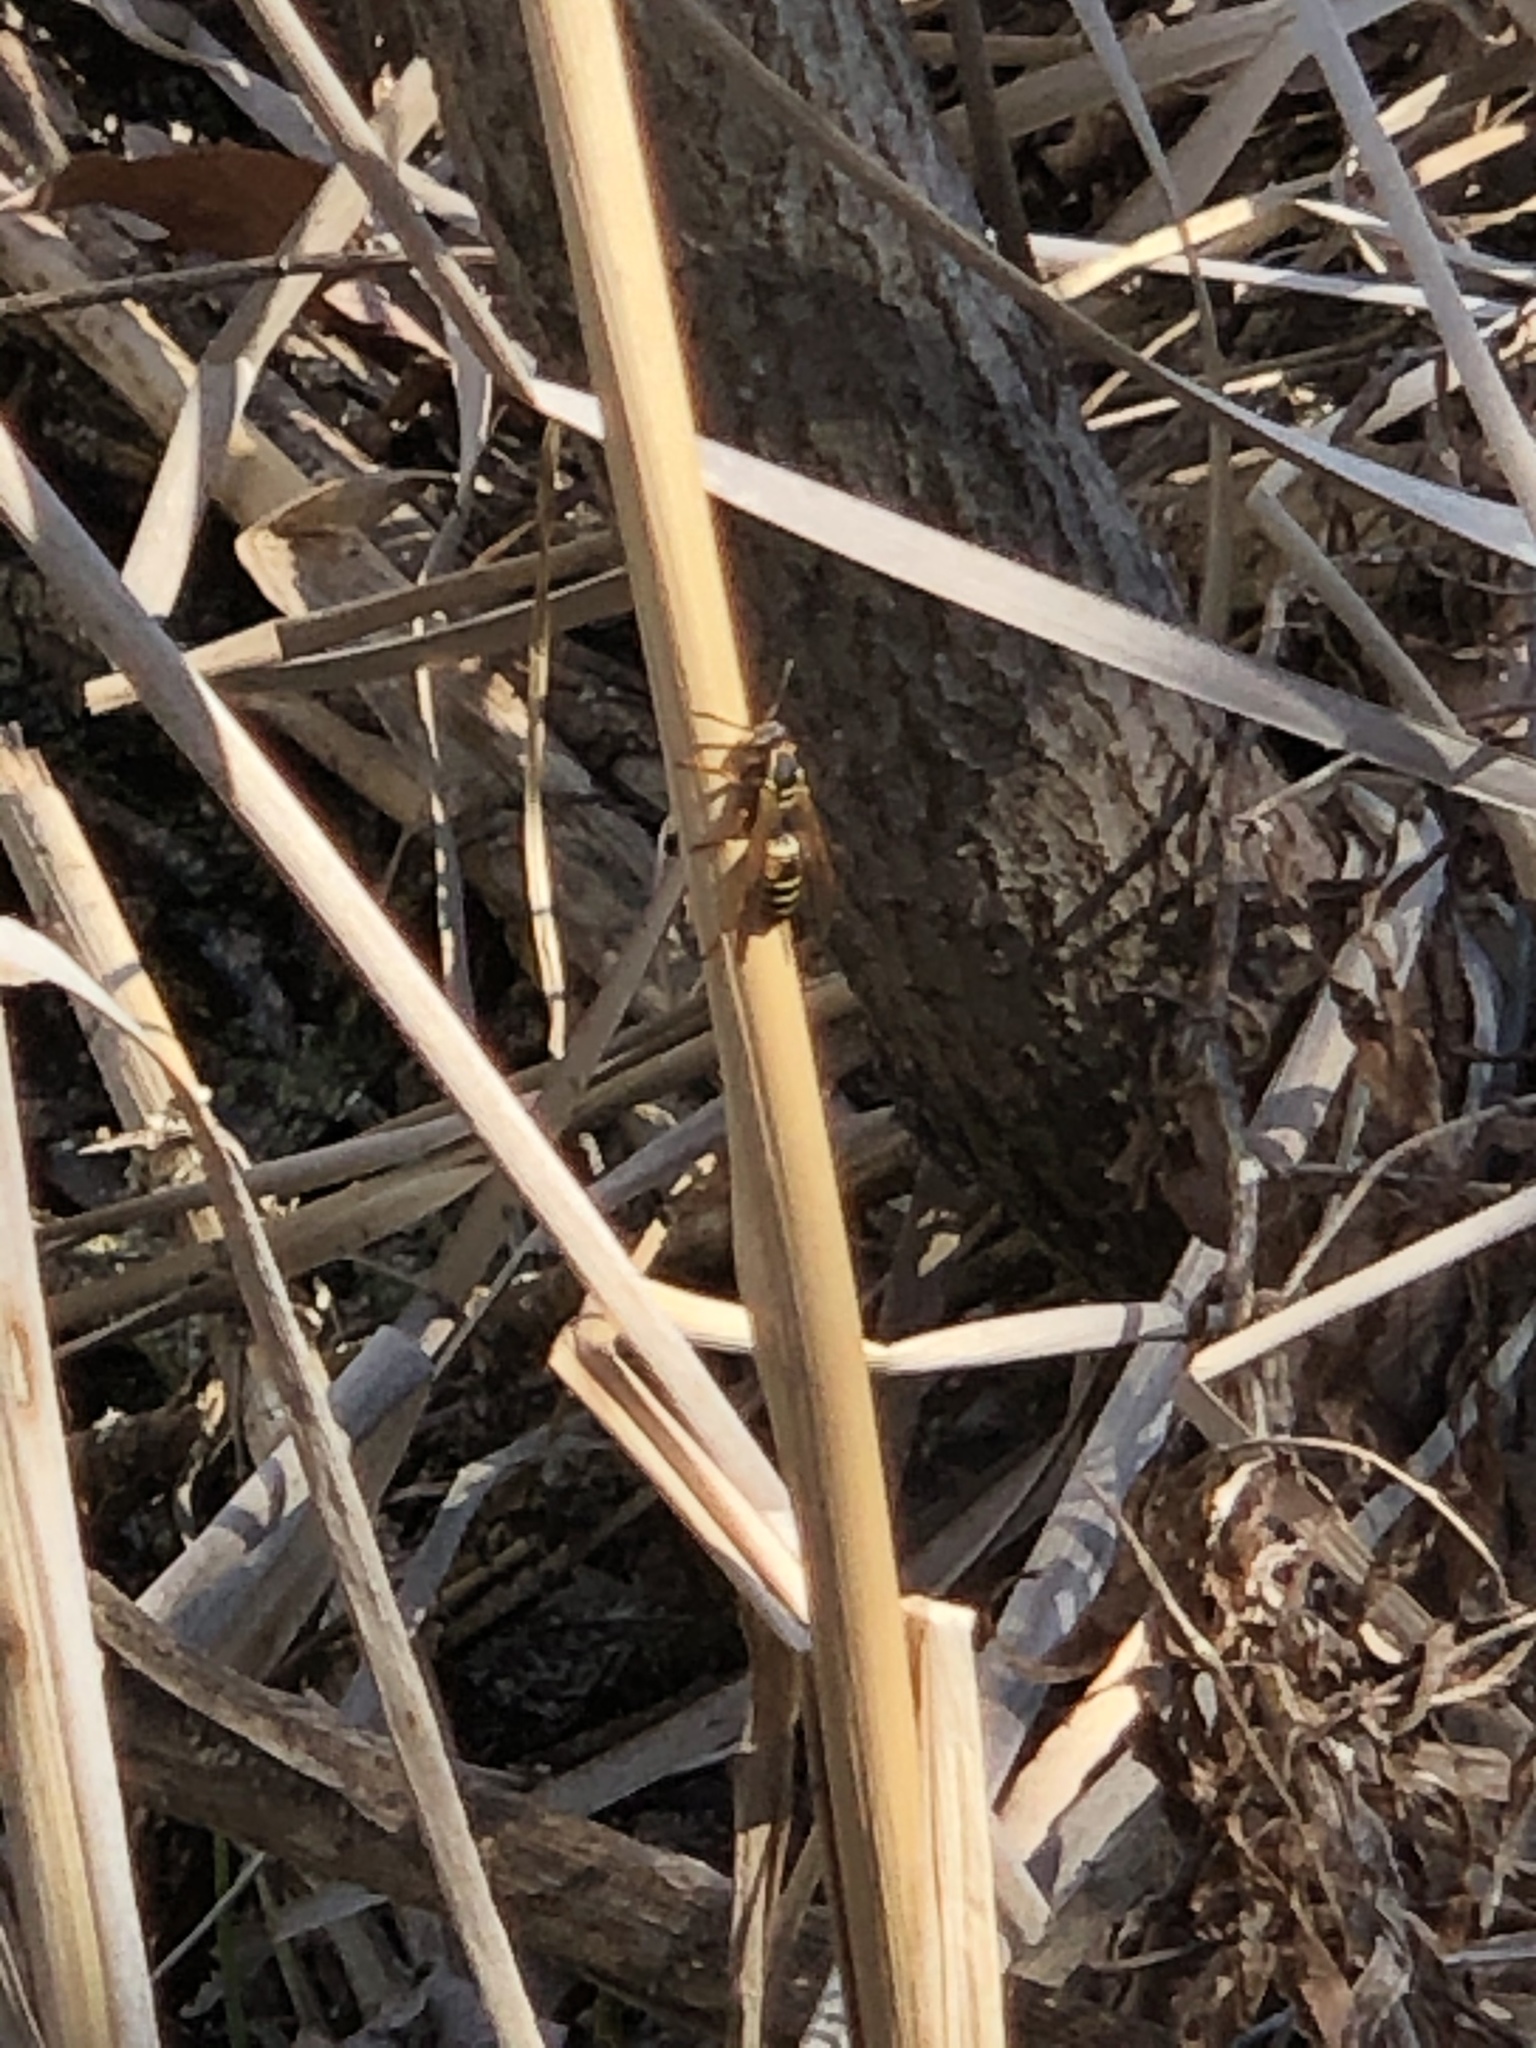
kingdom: Animalia
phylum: Arthropoda
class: Insecta
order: Hymenoptera
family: Eumenidae
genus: Polistes
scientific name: Polistes fuscatus
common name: Dark paper wasp
